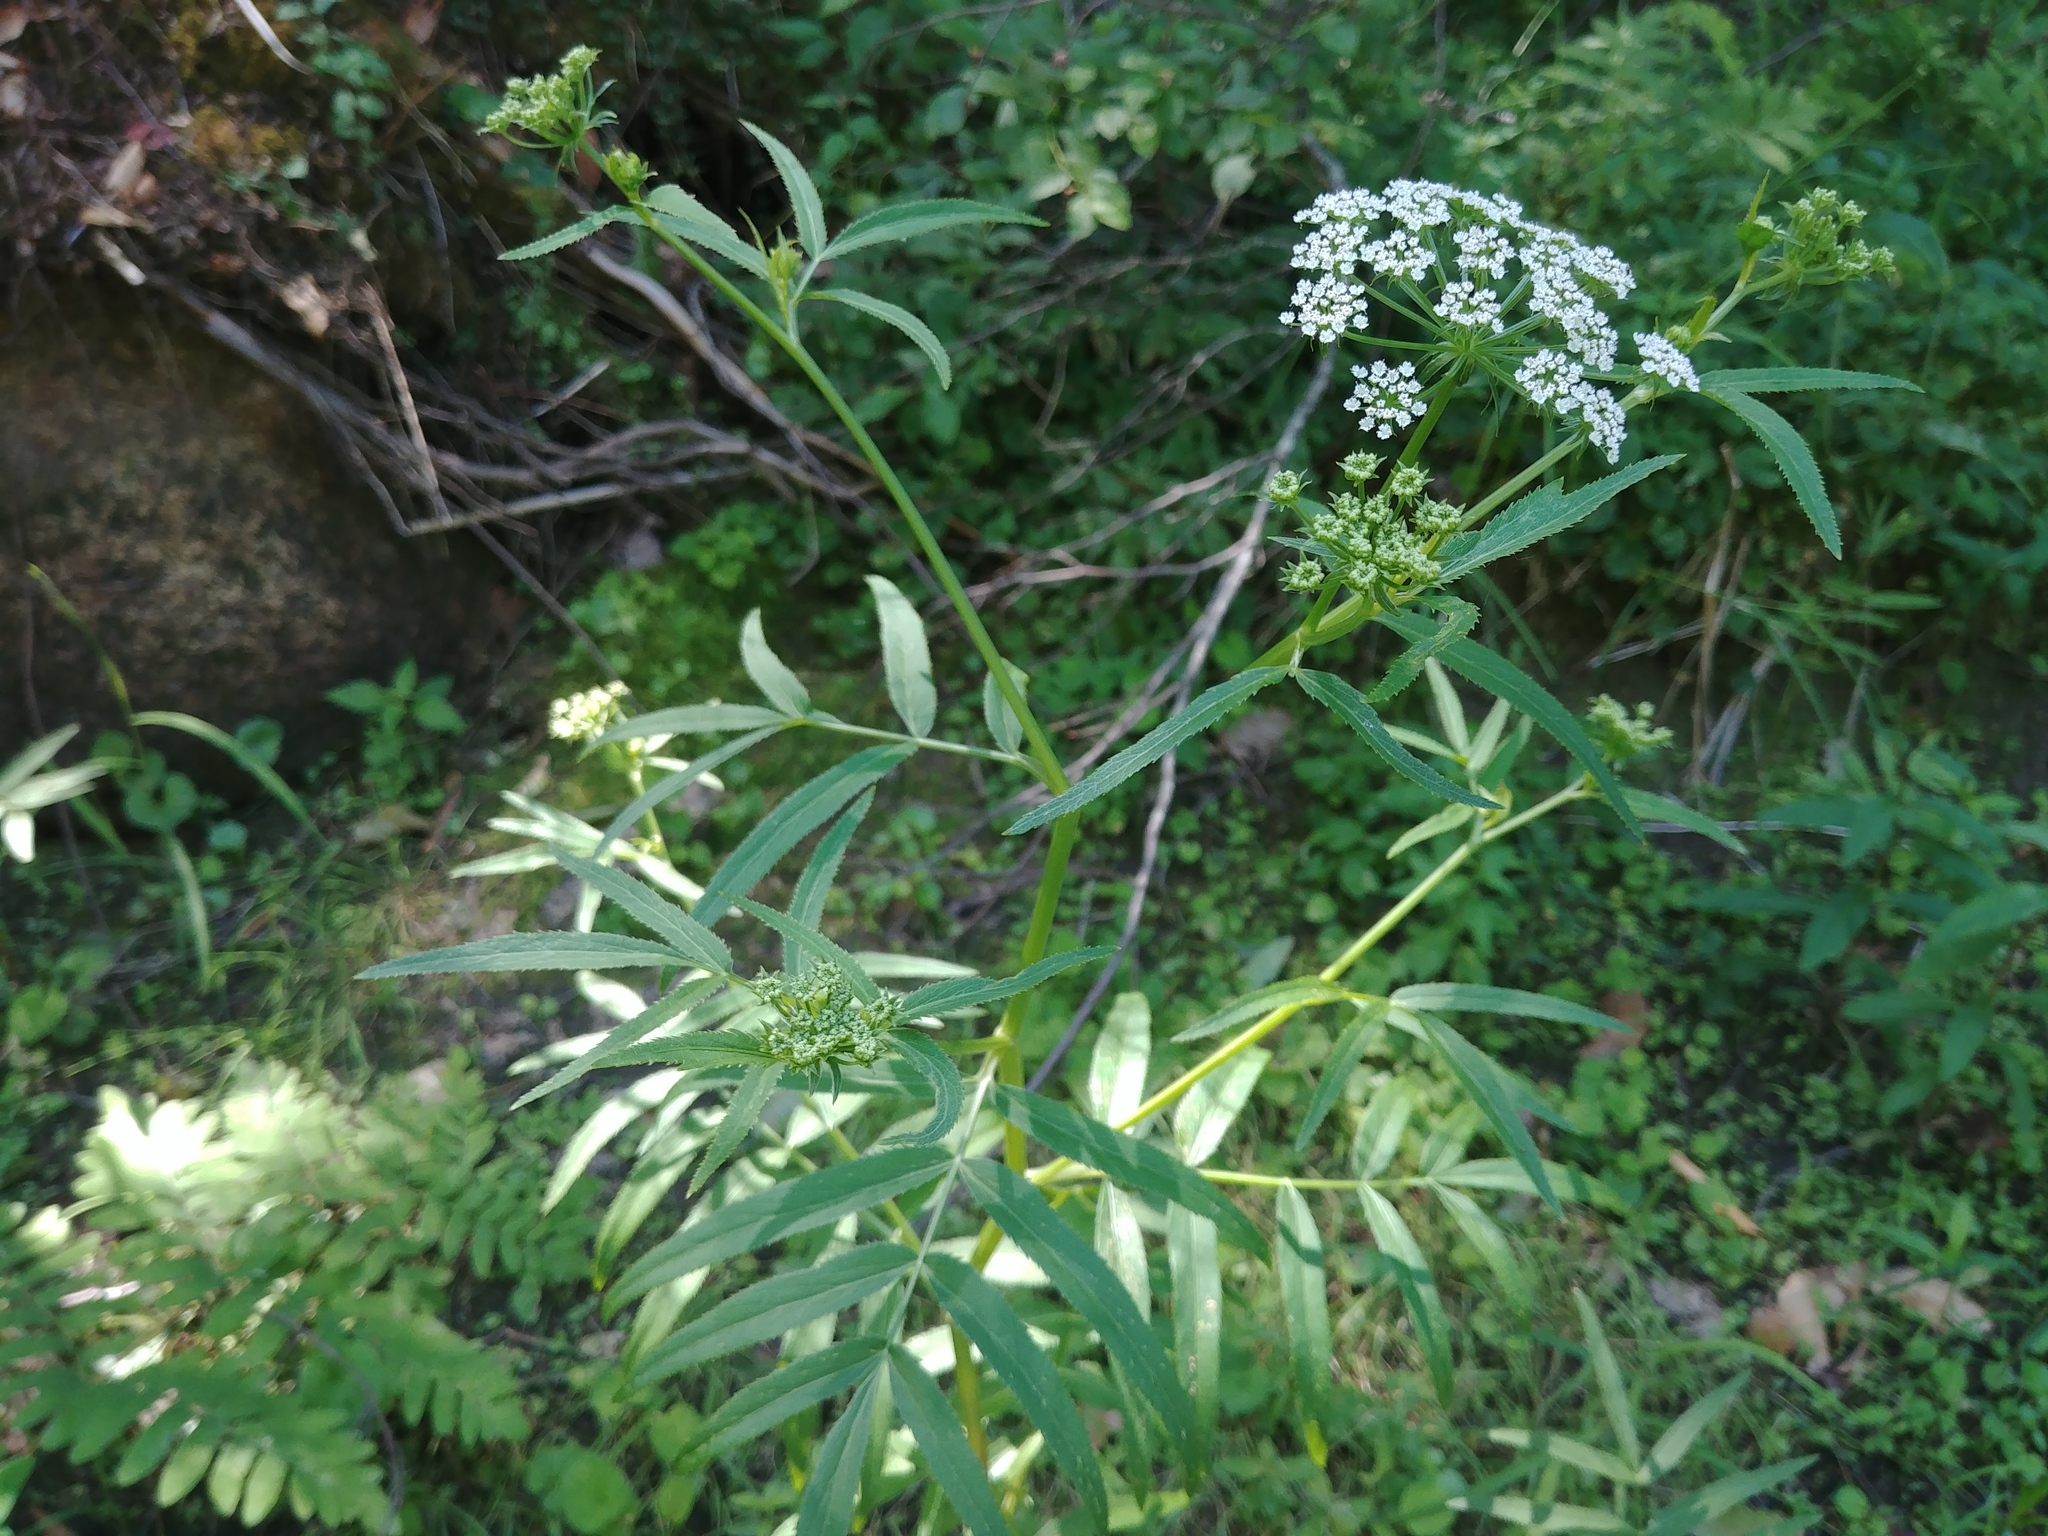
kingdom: Plantae
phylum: Tracheophyta
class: Magnoliopsida
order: Apiales
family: Apiaceae
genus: Sium
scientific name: Sium suave
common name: Hemlock water-parsnip
